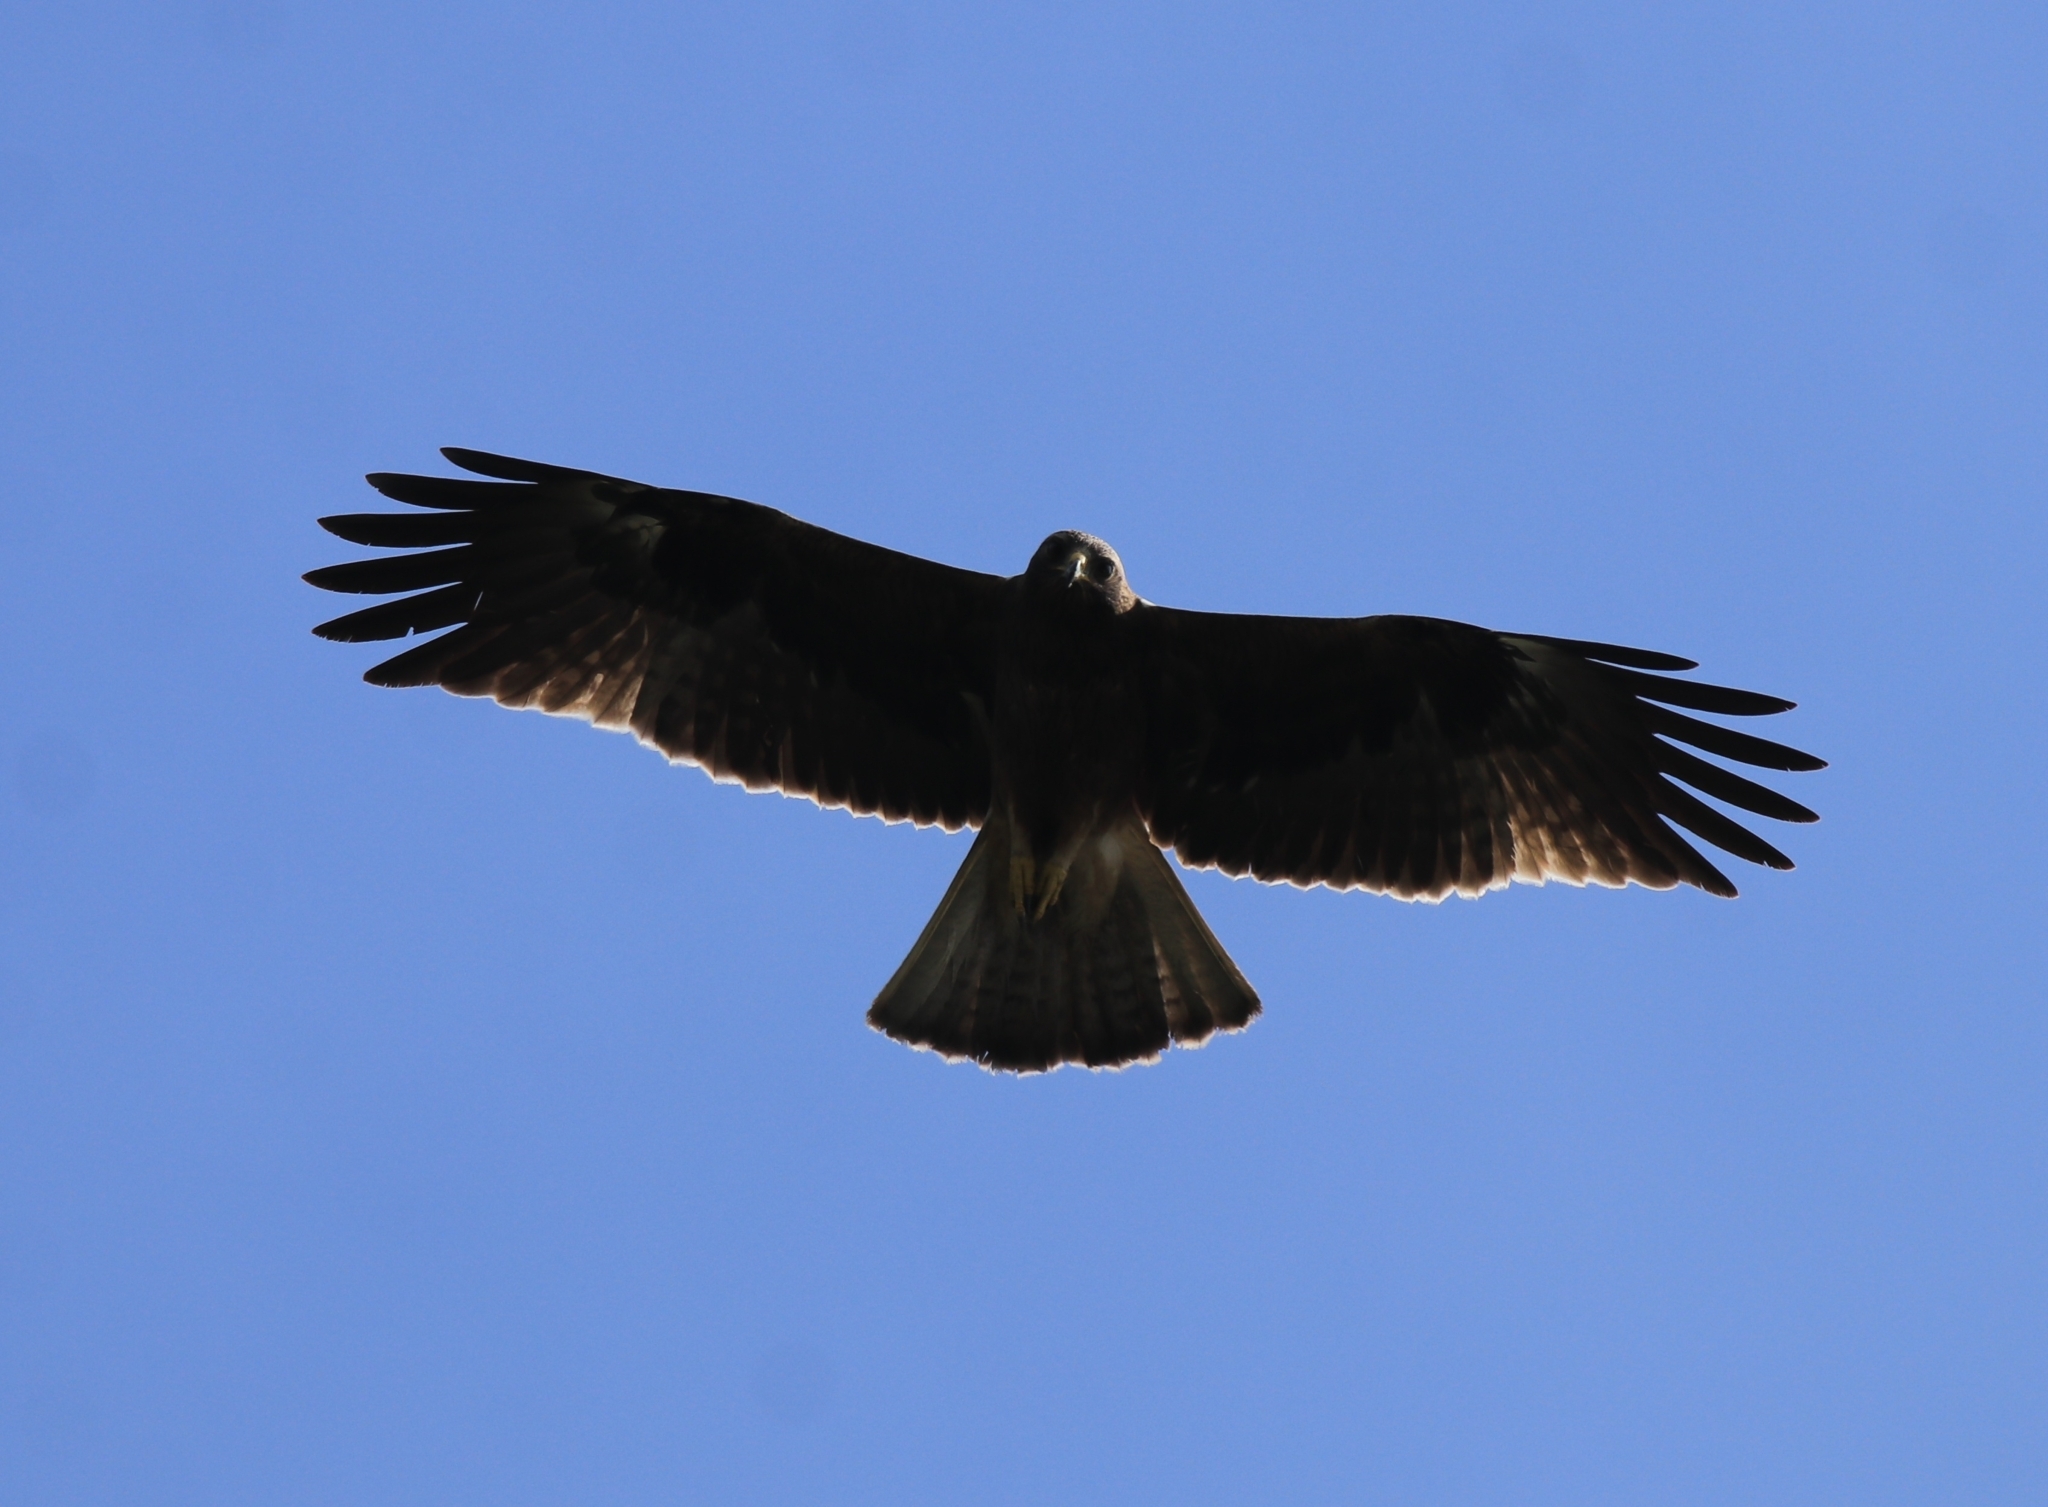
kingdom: Animalia
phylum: Chordata
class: Aves
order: Accipitriformes
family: Accipitridae
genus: Hieraaetus
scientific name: Hieraaetus pennatus
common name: Booted eagle
